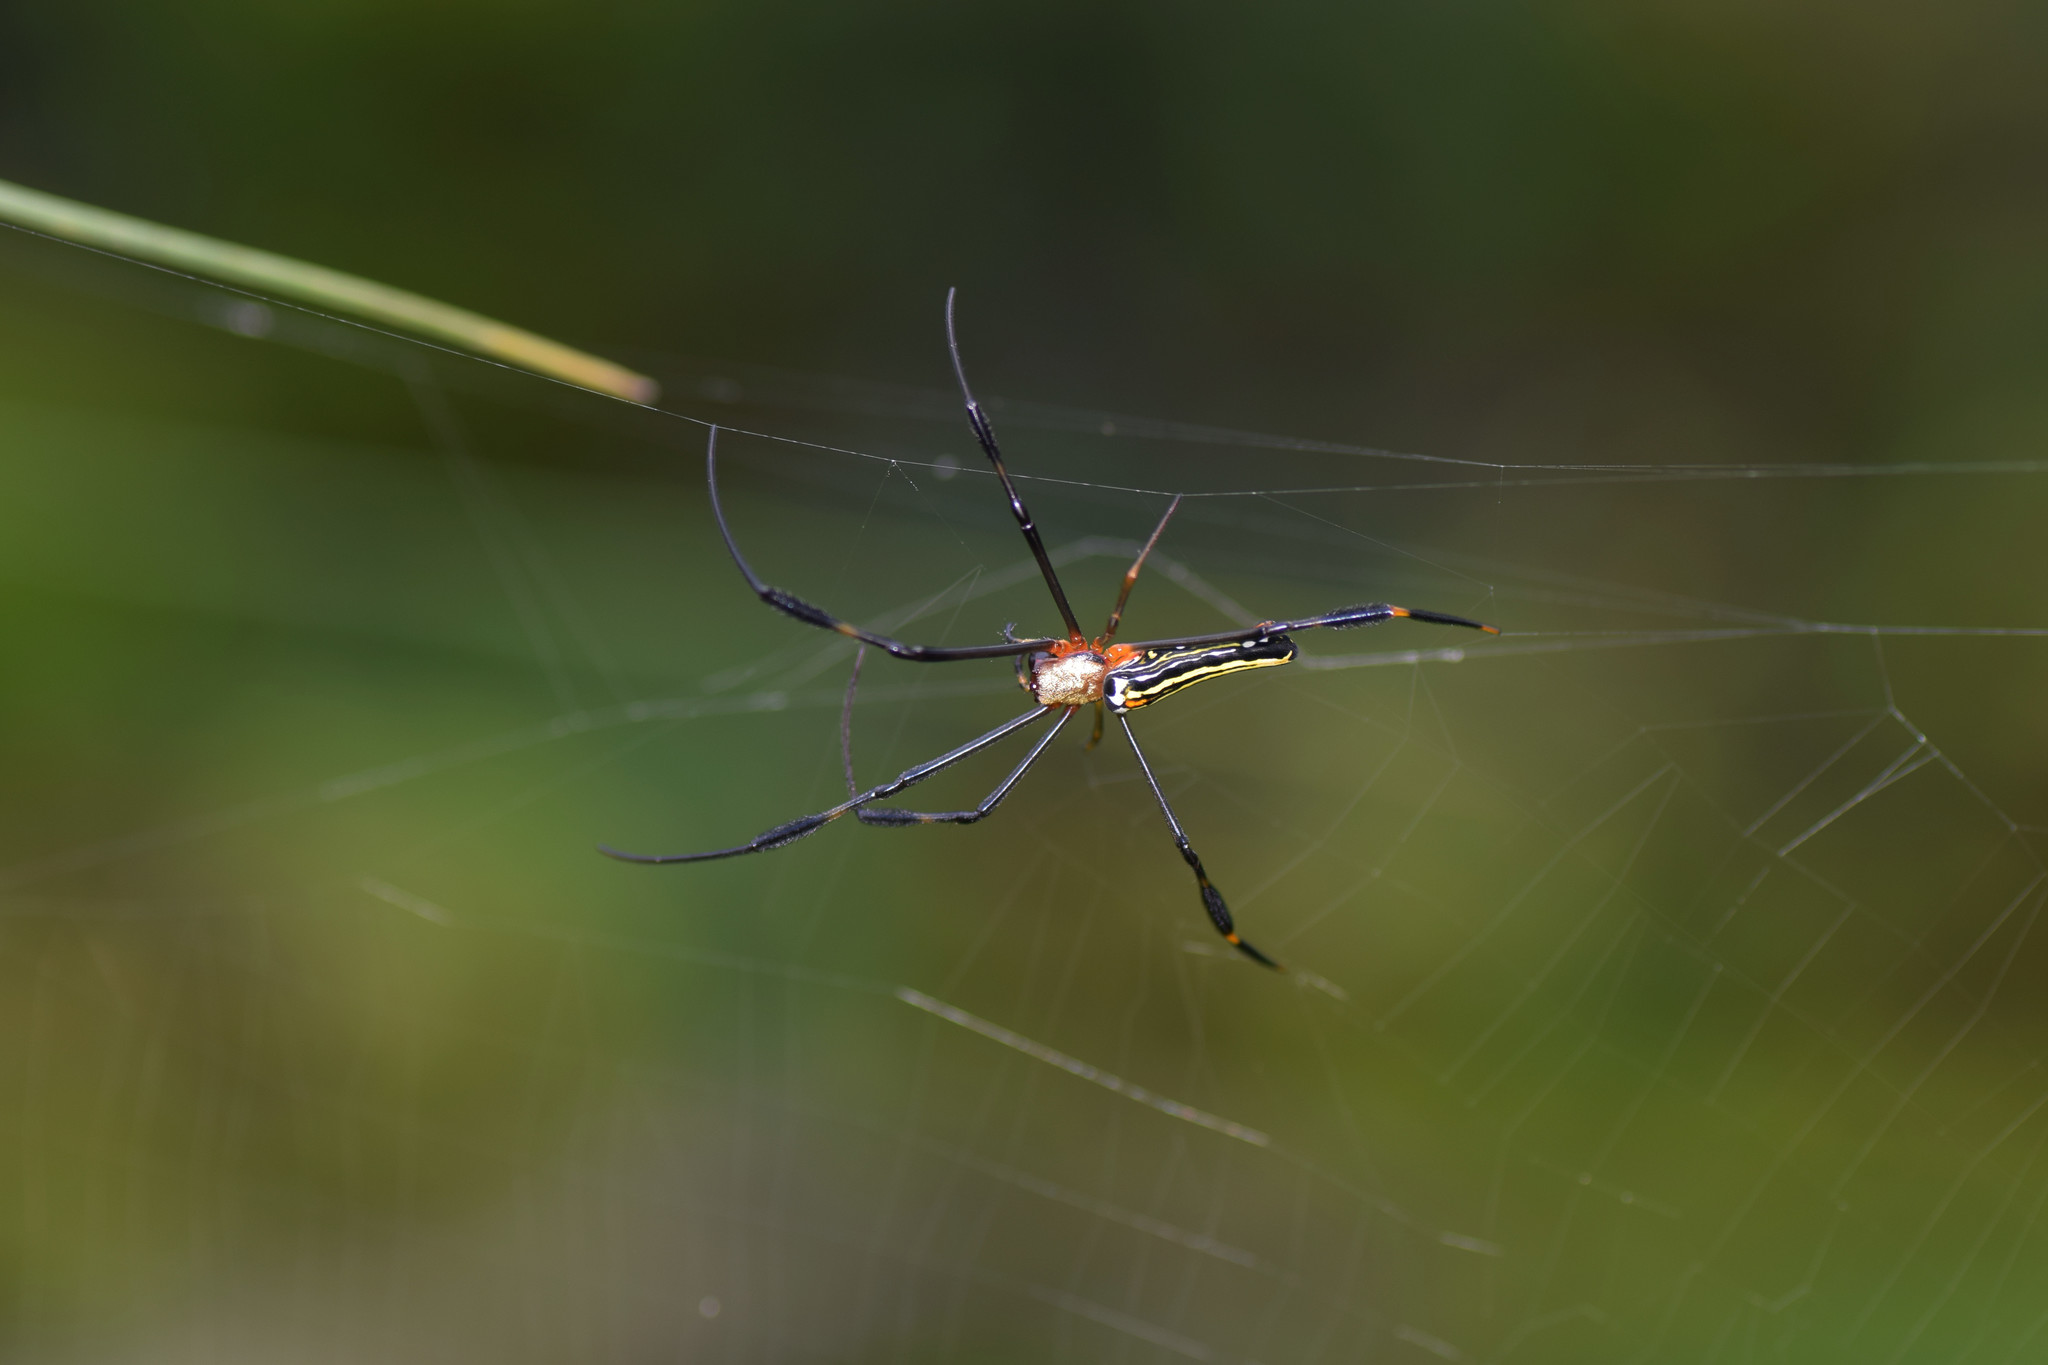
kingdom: Animalia
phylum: Arthropoda
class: Arachnida
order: Araneae
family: Araneidae
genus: Nephila
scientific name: Nephila pilipes
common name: Giant golden orb weaver
